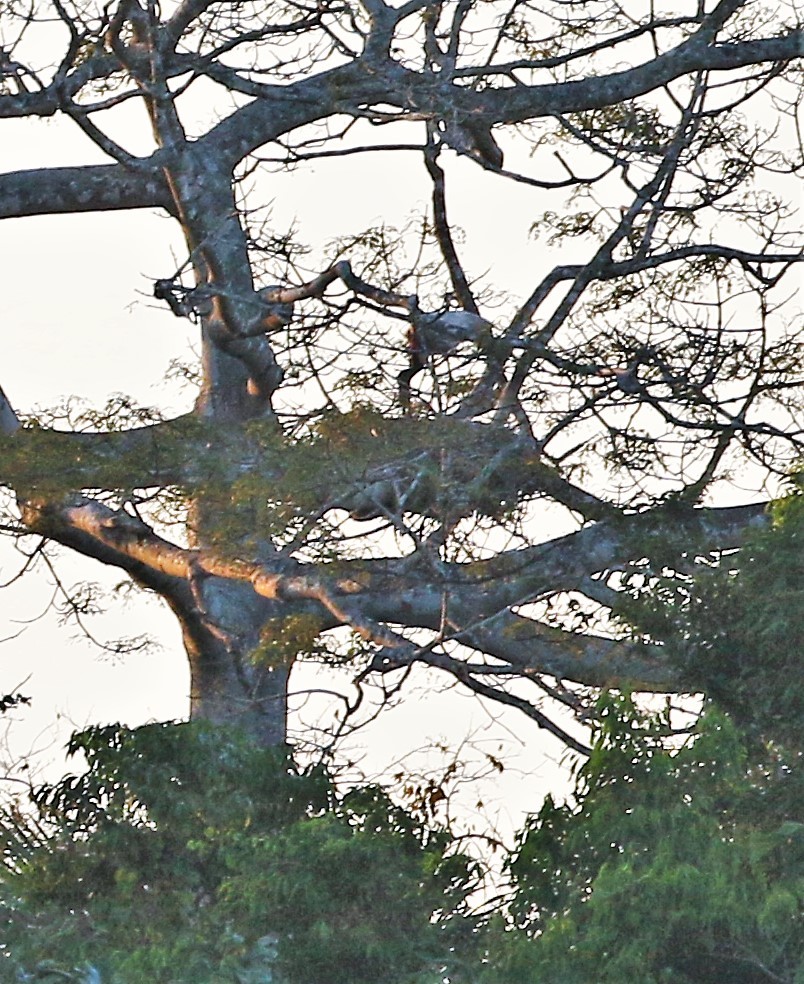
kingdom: Animalia
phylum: Chordata
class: Aves
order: Ciconiiformes
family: Ciconiidae
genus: Jabiru
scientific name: Jabiru mycteria
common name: Jabiru
